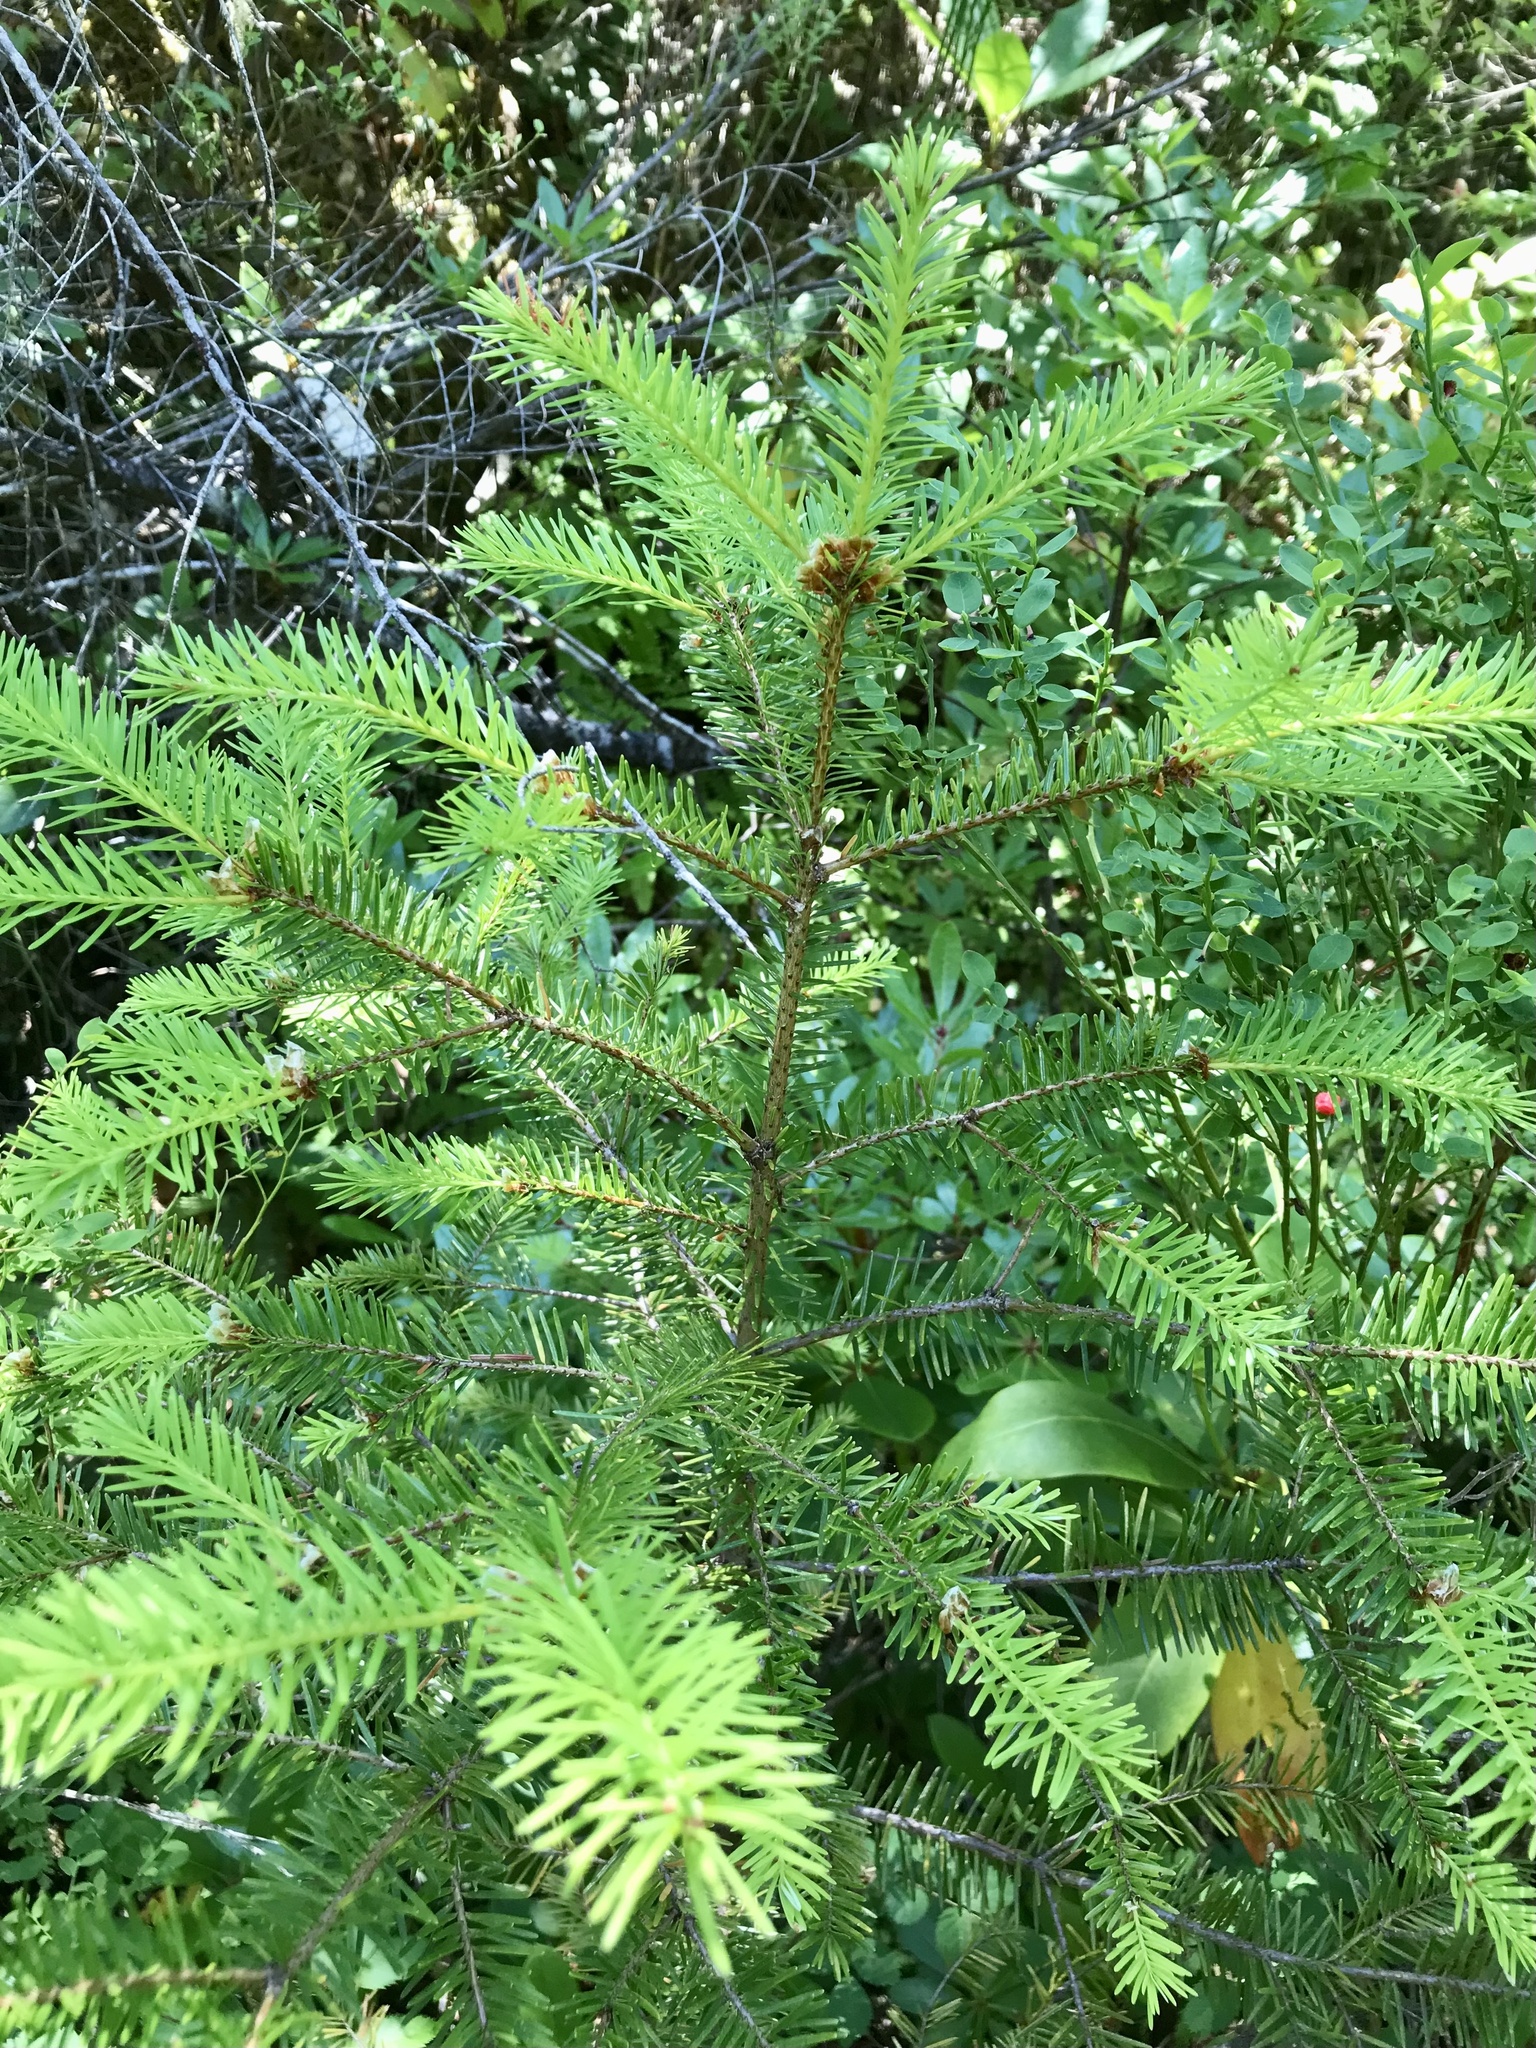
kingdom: Plantae
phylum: Tracheophyta
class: Pinopsida
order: Pinales
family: Pinaceae
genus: Pseudotsuga
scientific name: Pseudotsuga menziesii
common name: Douglas fir
